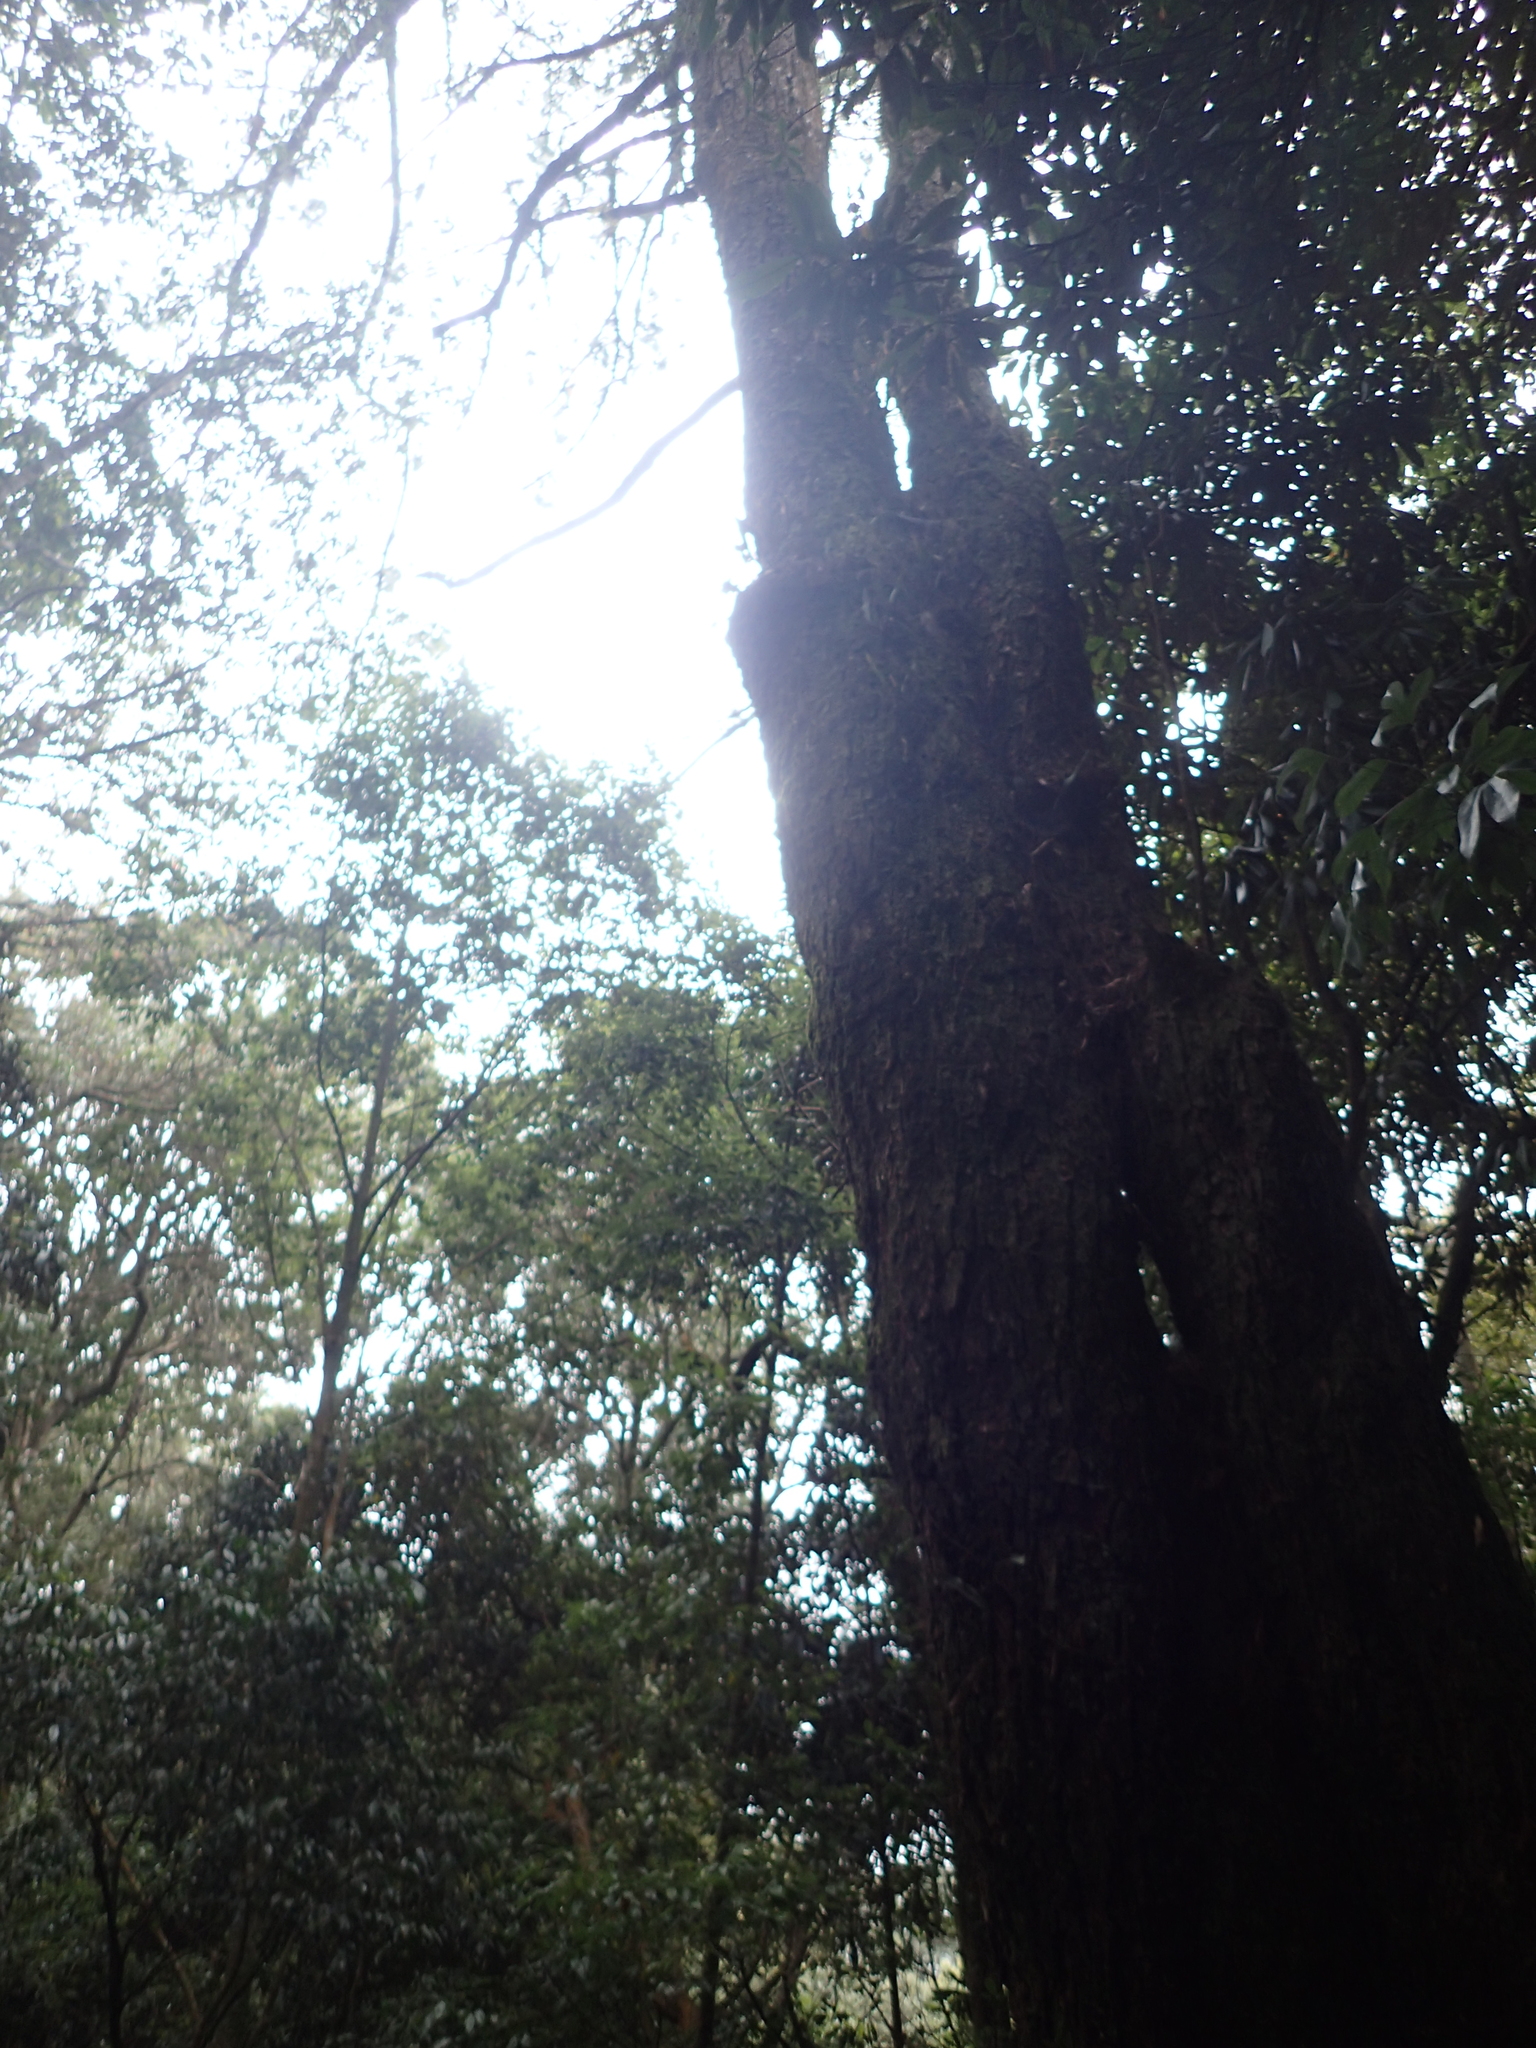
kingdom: Plantae
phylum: Tracheophyta
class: Pinopsida
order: Pinales
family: Pinaceae
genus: Pinus
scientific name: Pinus morrisonicola
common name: Taiwan white pine
